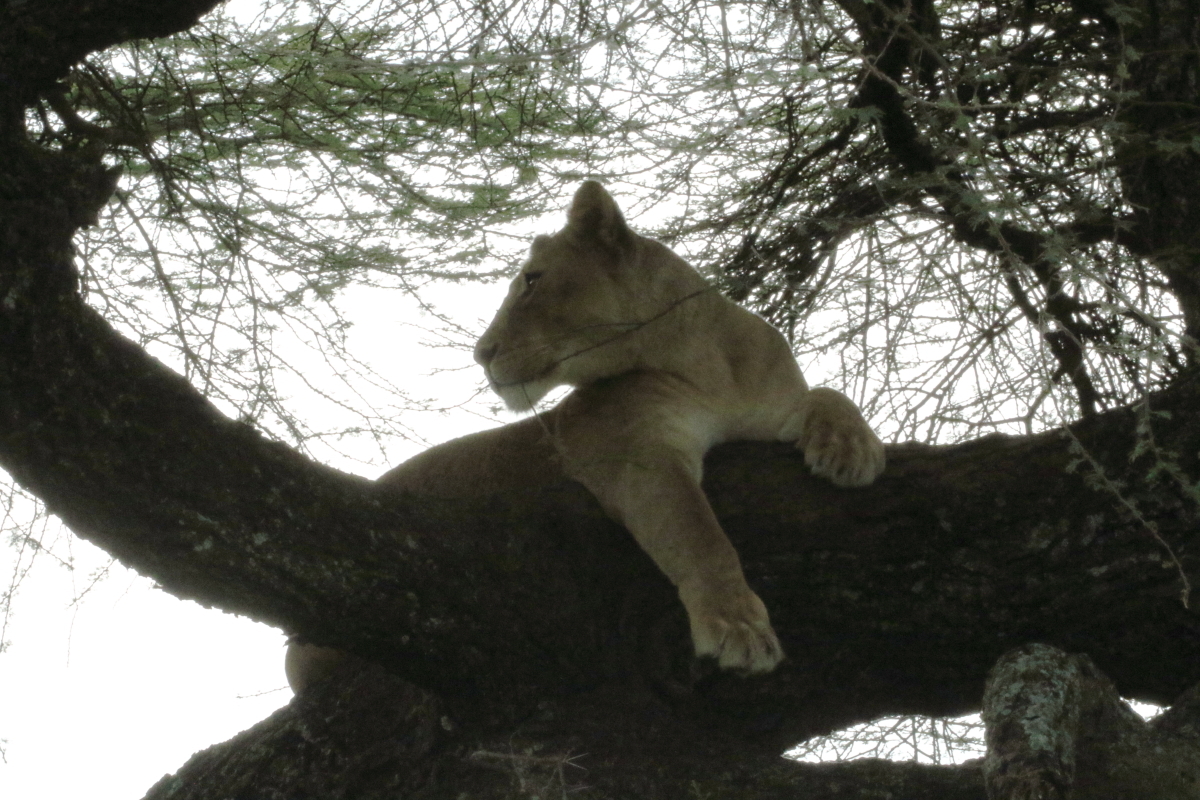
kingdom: Animalia
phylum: Chordata
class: Mammalia
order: Carnivora
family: Felidae
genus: Panthera
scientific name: Panthera leo
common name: Lion
